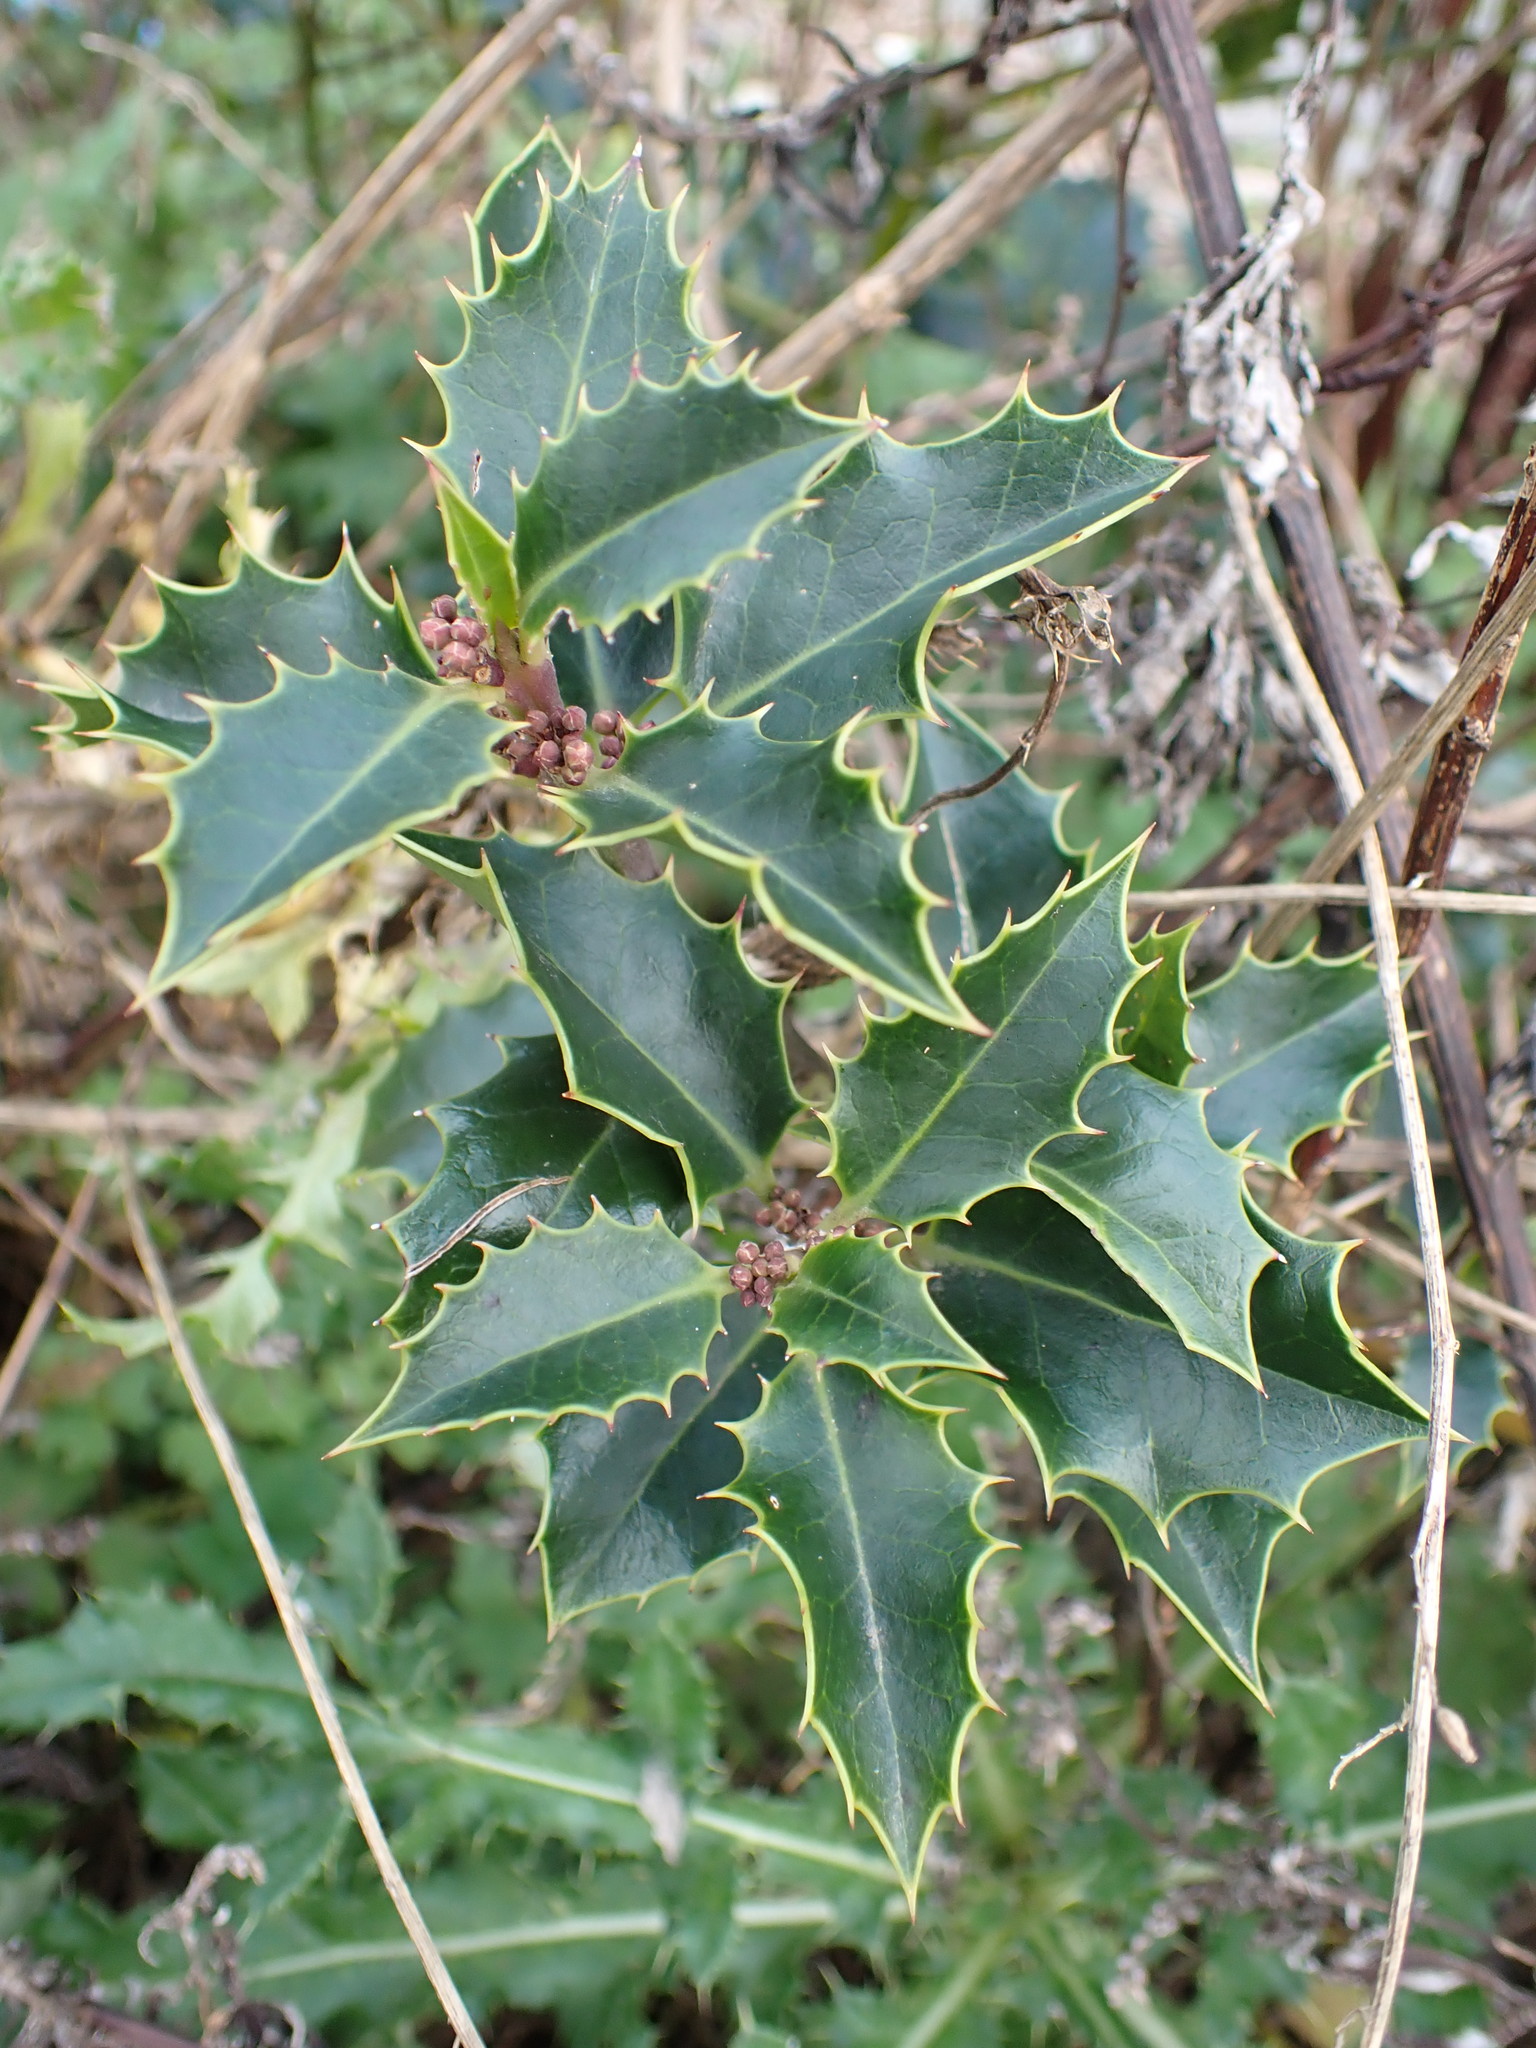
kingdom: Plantae
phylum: Tracheophyta
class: Magnoliopsida
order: Aquifoliales
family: Aquifoliaceae
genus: Ilex
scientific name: Ilex aquifolium
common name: English holly
